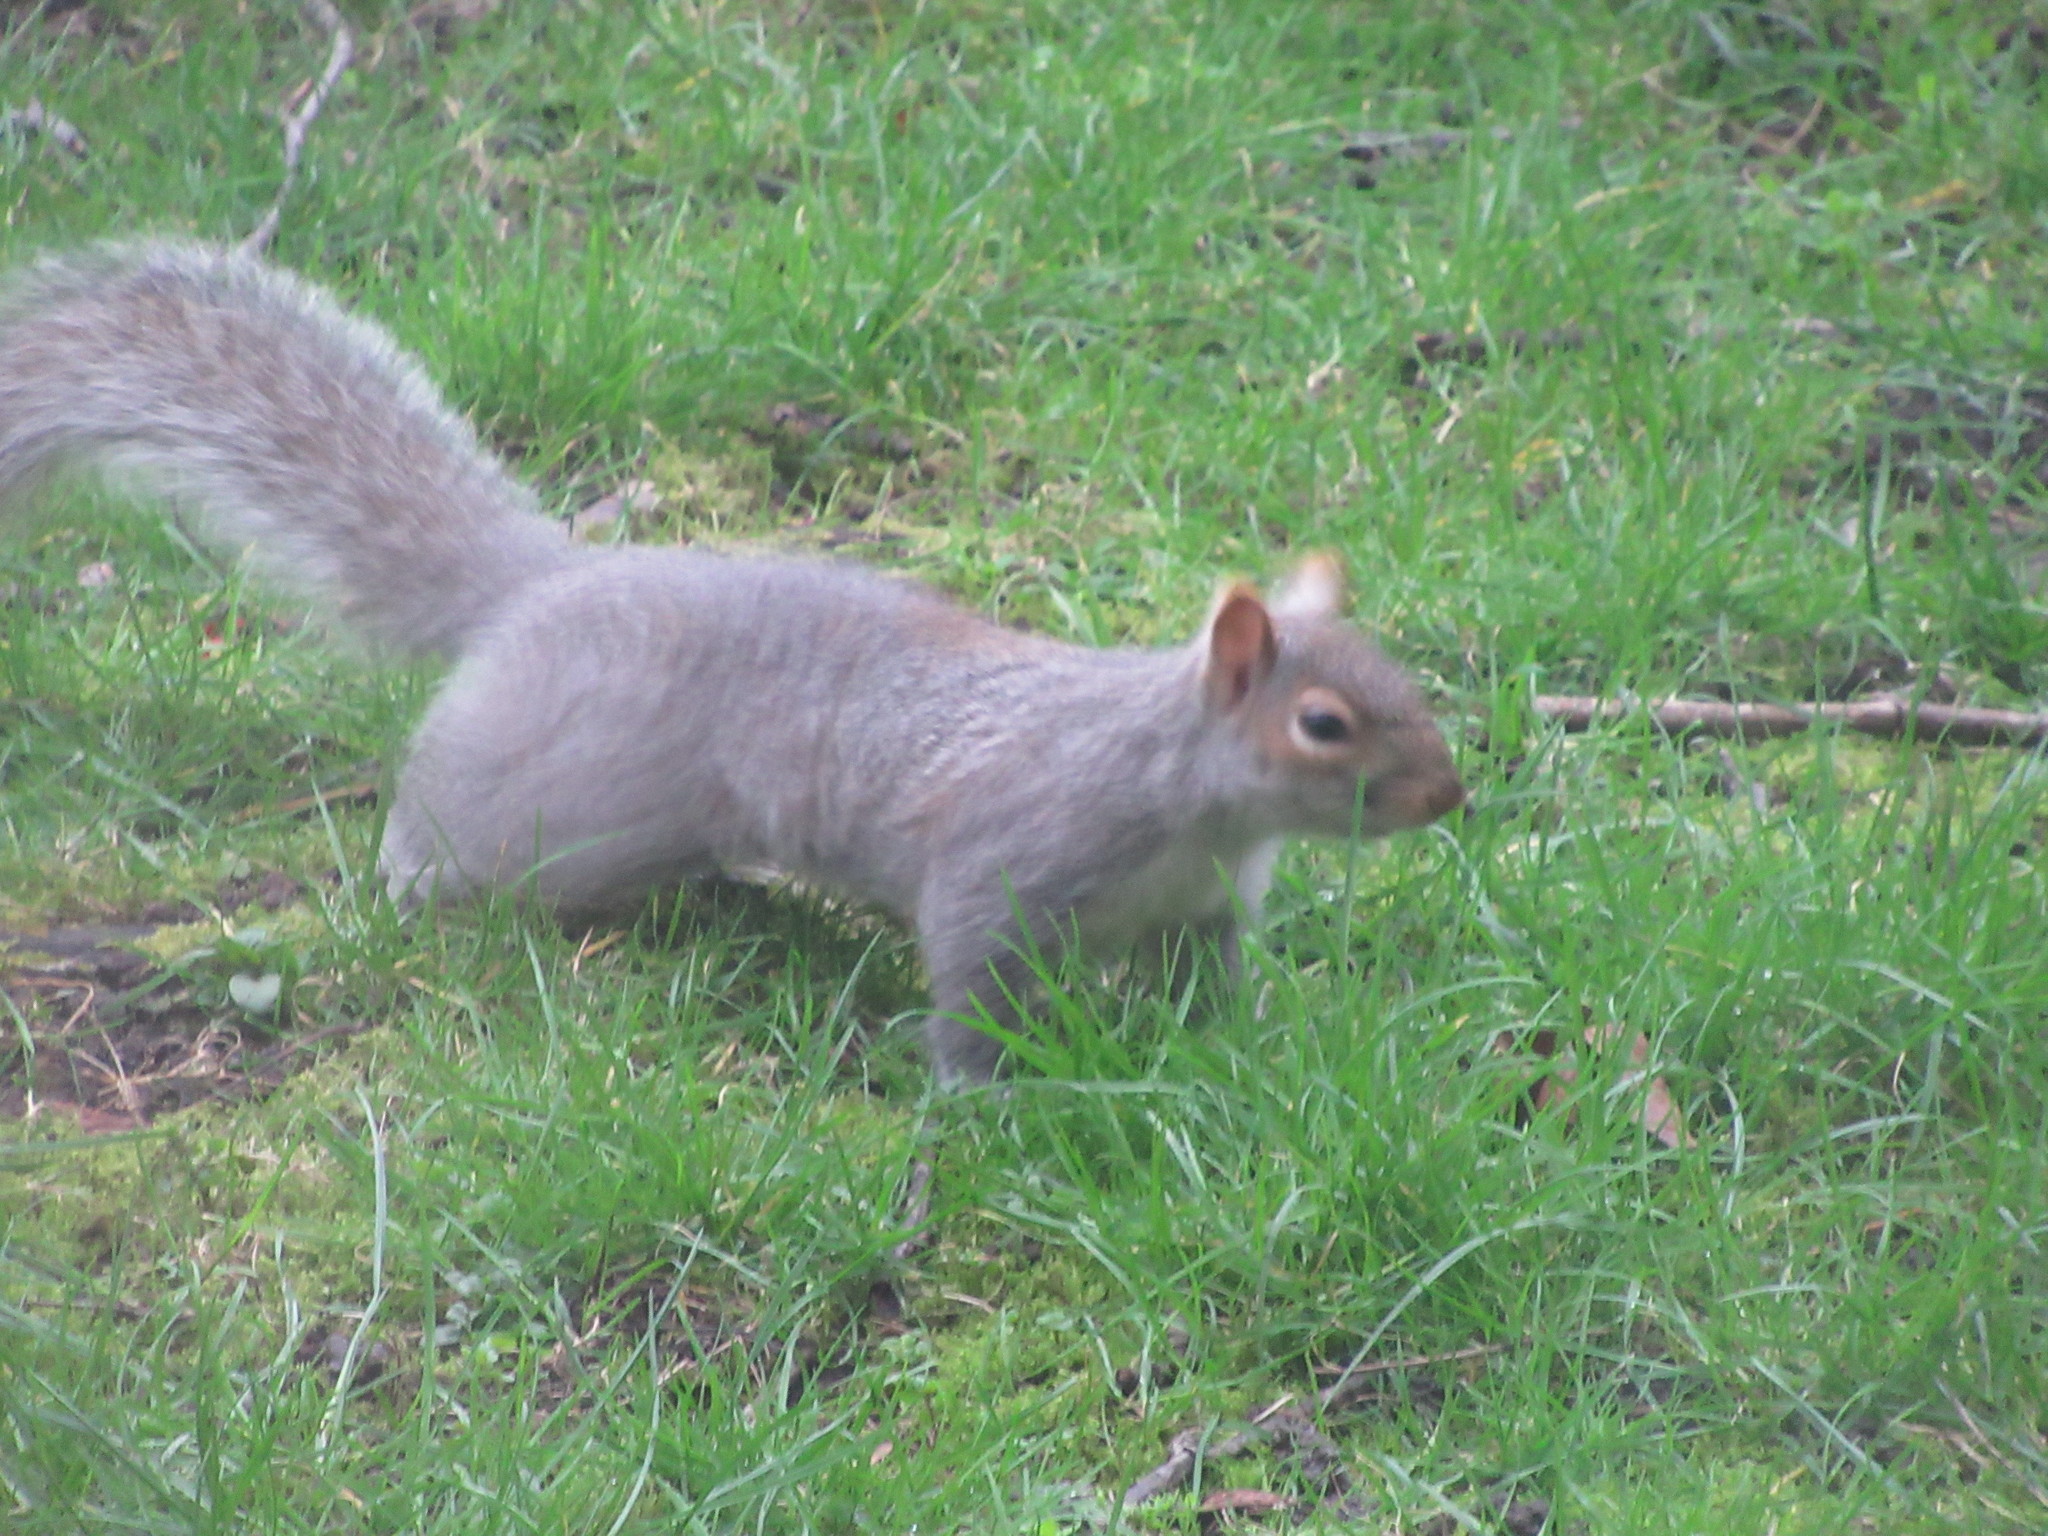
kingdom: Animalia
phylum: Chordata
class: Mammalia
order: Rodentia
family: Sciuridae
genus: Sciurus
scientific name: Sciurus carolinensis
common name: Eastern gray squirrel
